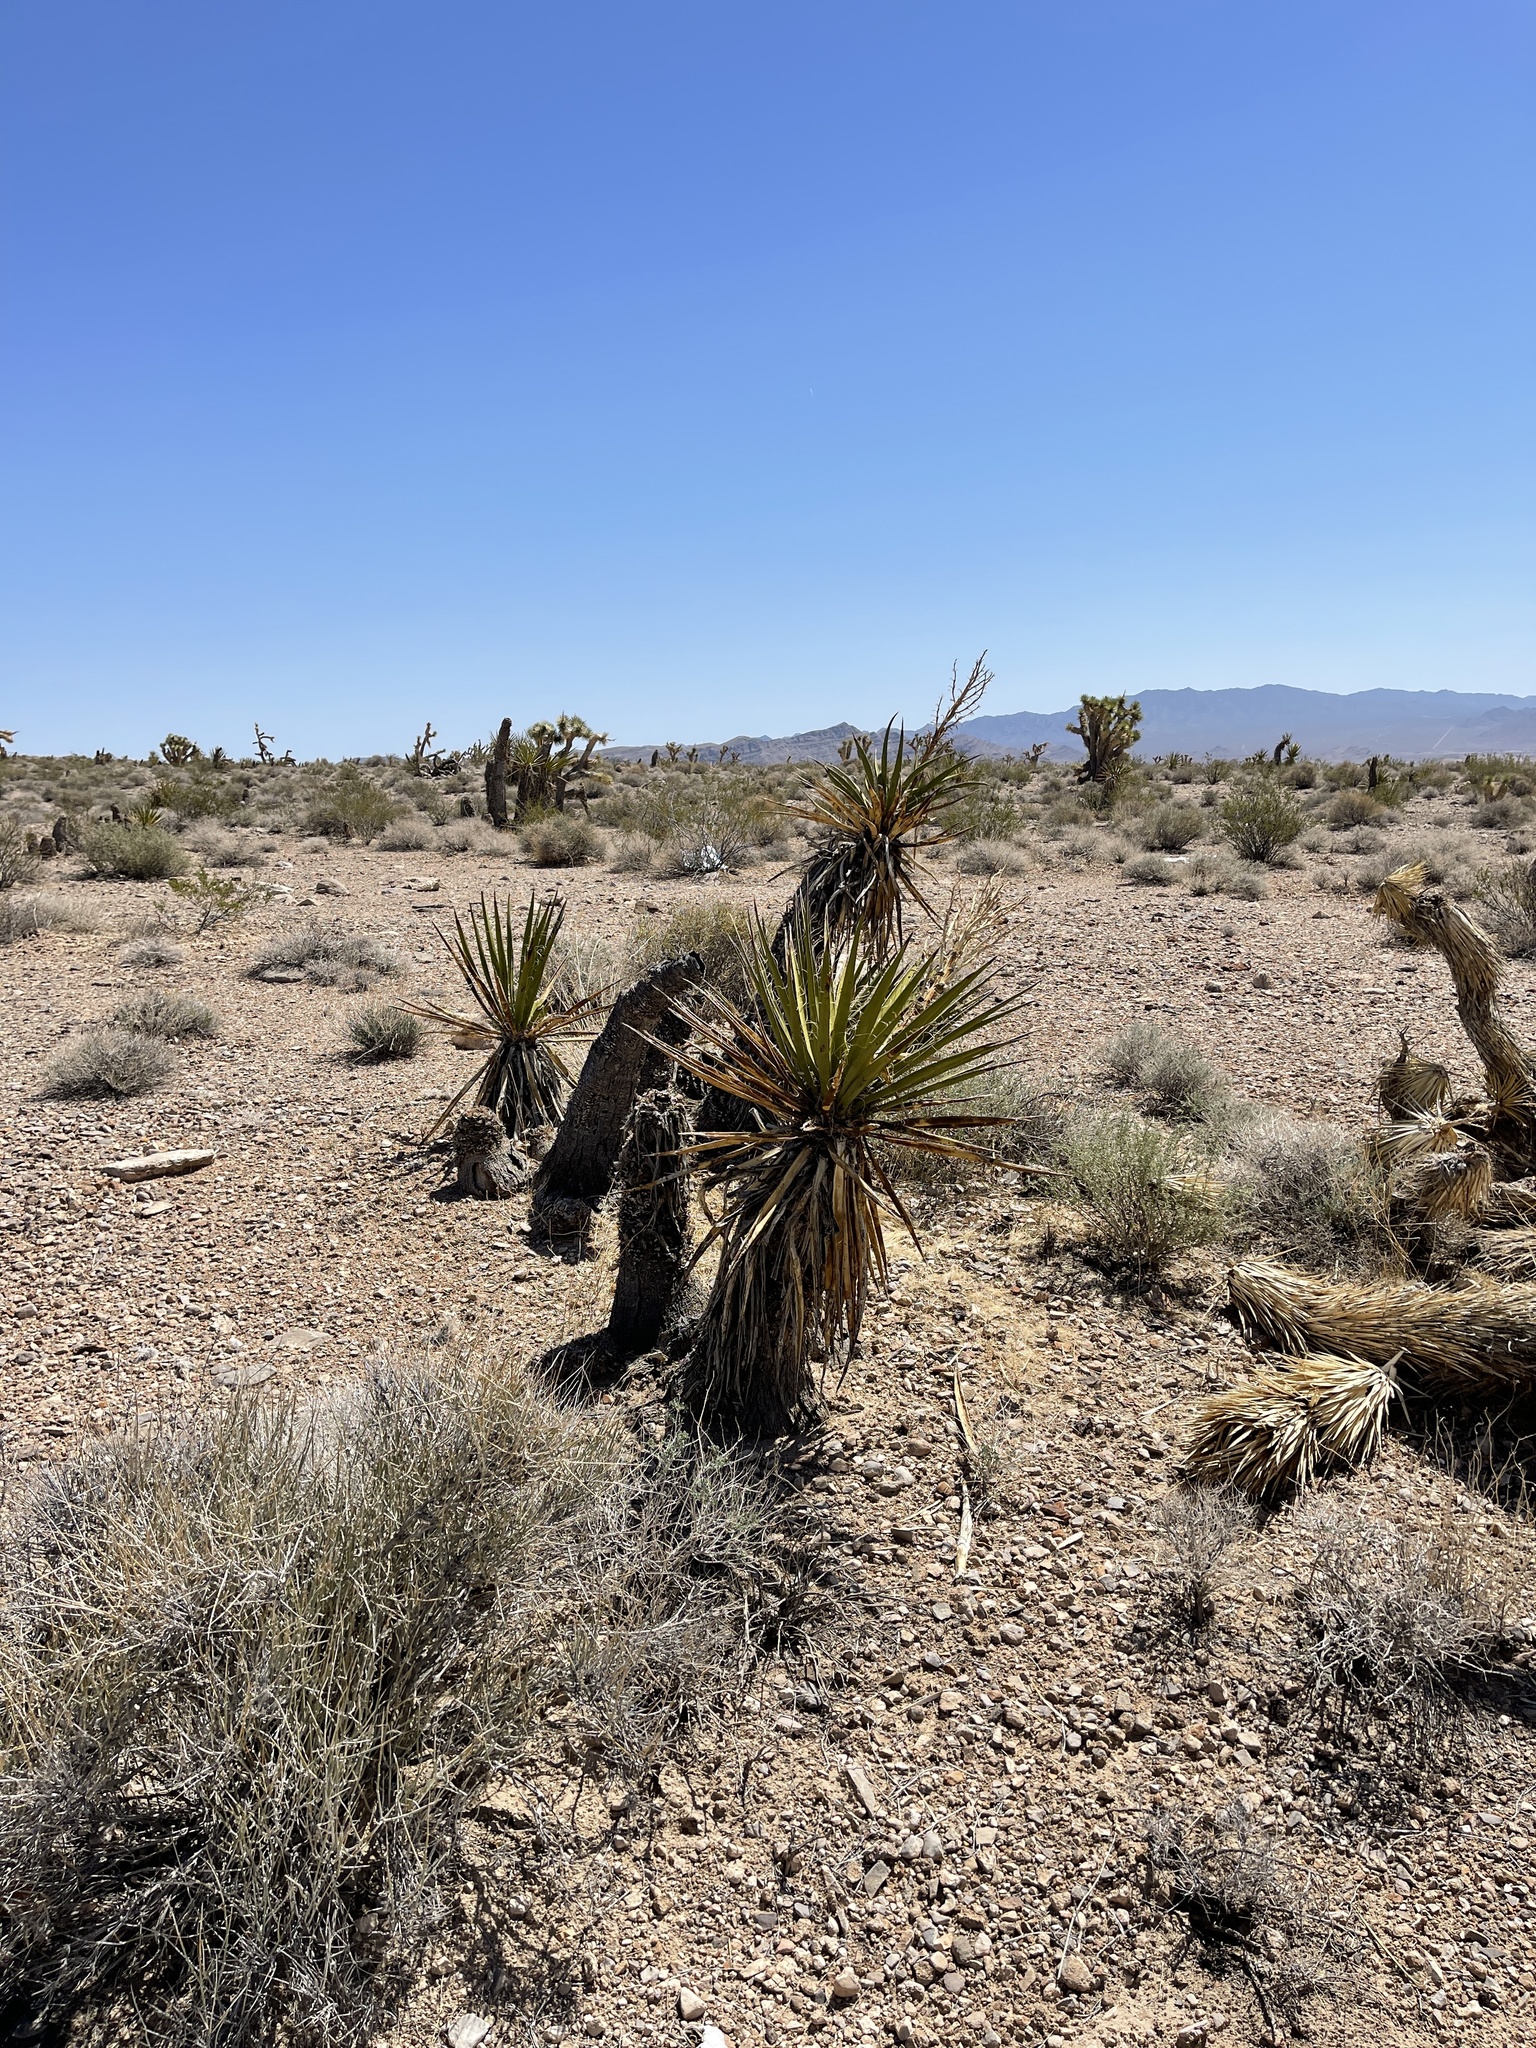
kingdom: Plantae
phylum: Tracheophyta
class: Liliopsida
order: Asparagales
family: Asparagaceae
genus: Yucca
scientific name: Yucca schidigera
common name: Mojave yucca
